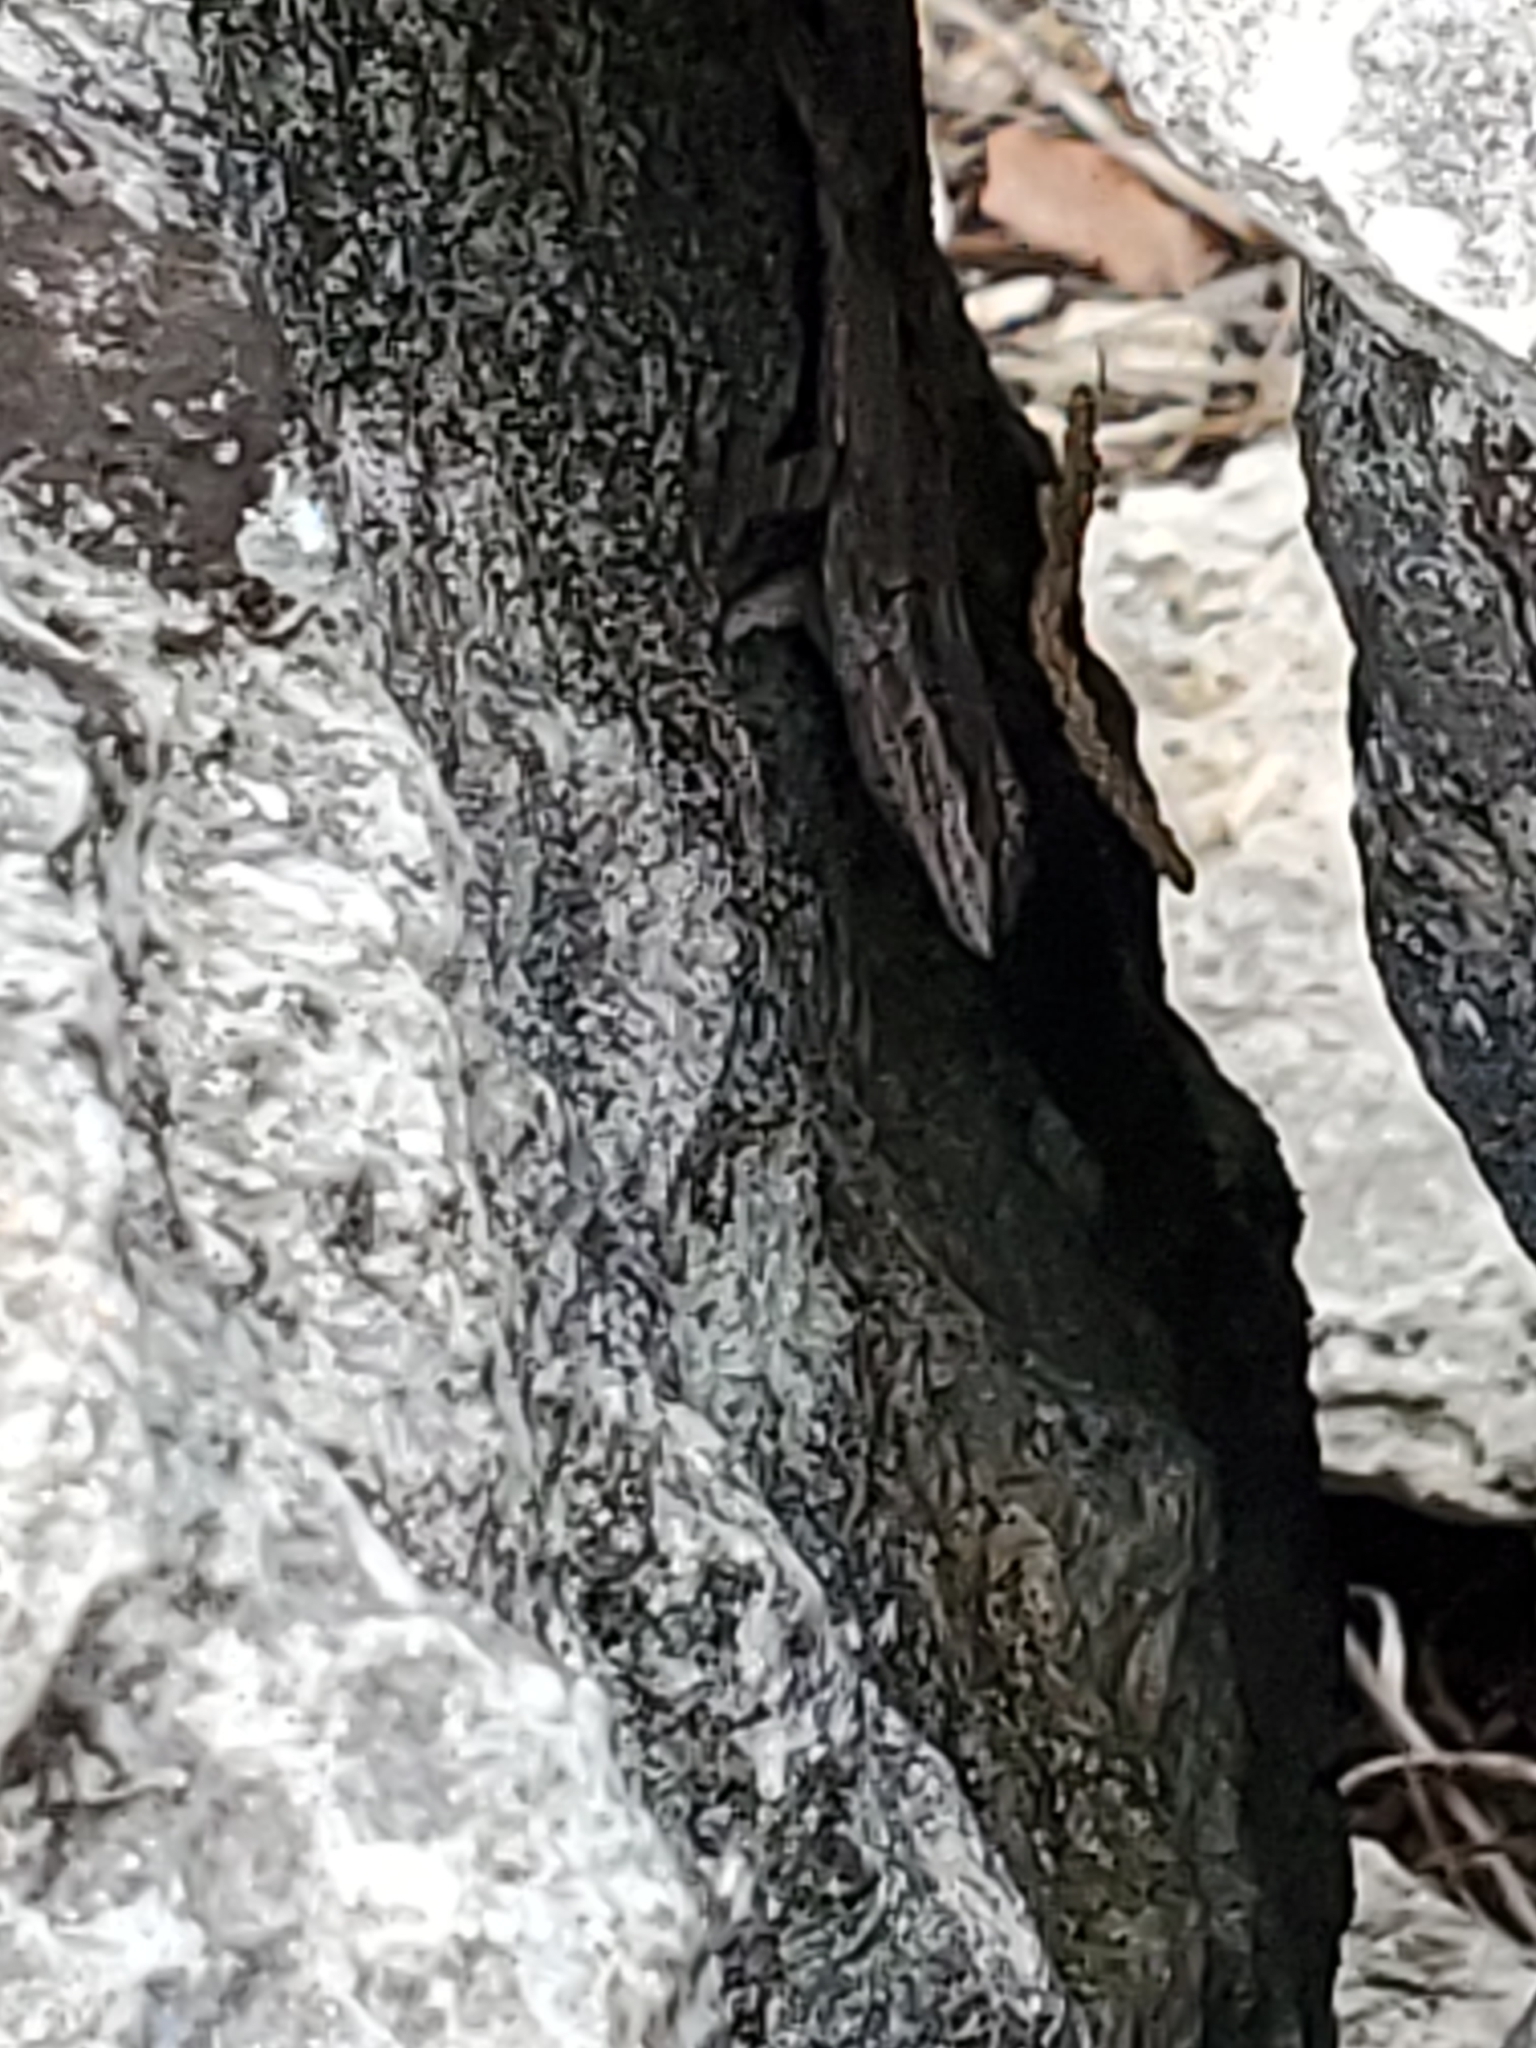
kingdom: Animalia
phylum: Chordata
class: Squamata
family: Phrynosomatidae
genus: Urosaurus
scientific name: Urosaurus ornatus
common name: Ornate tree lizard
